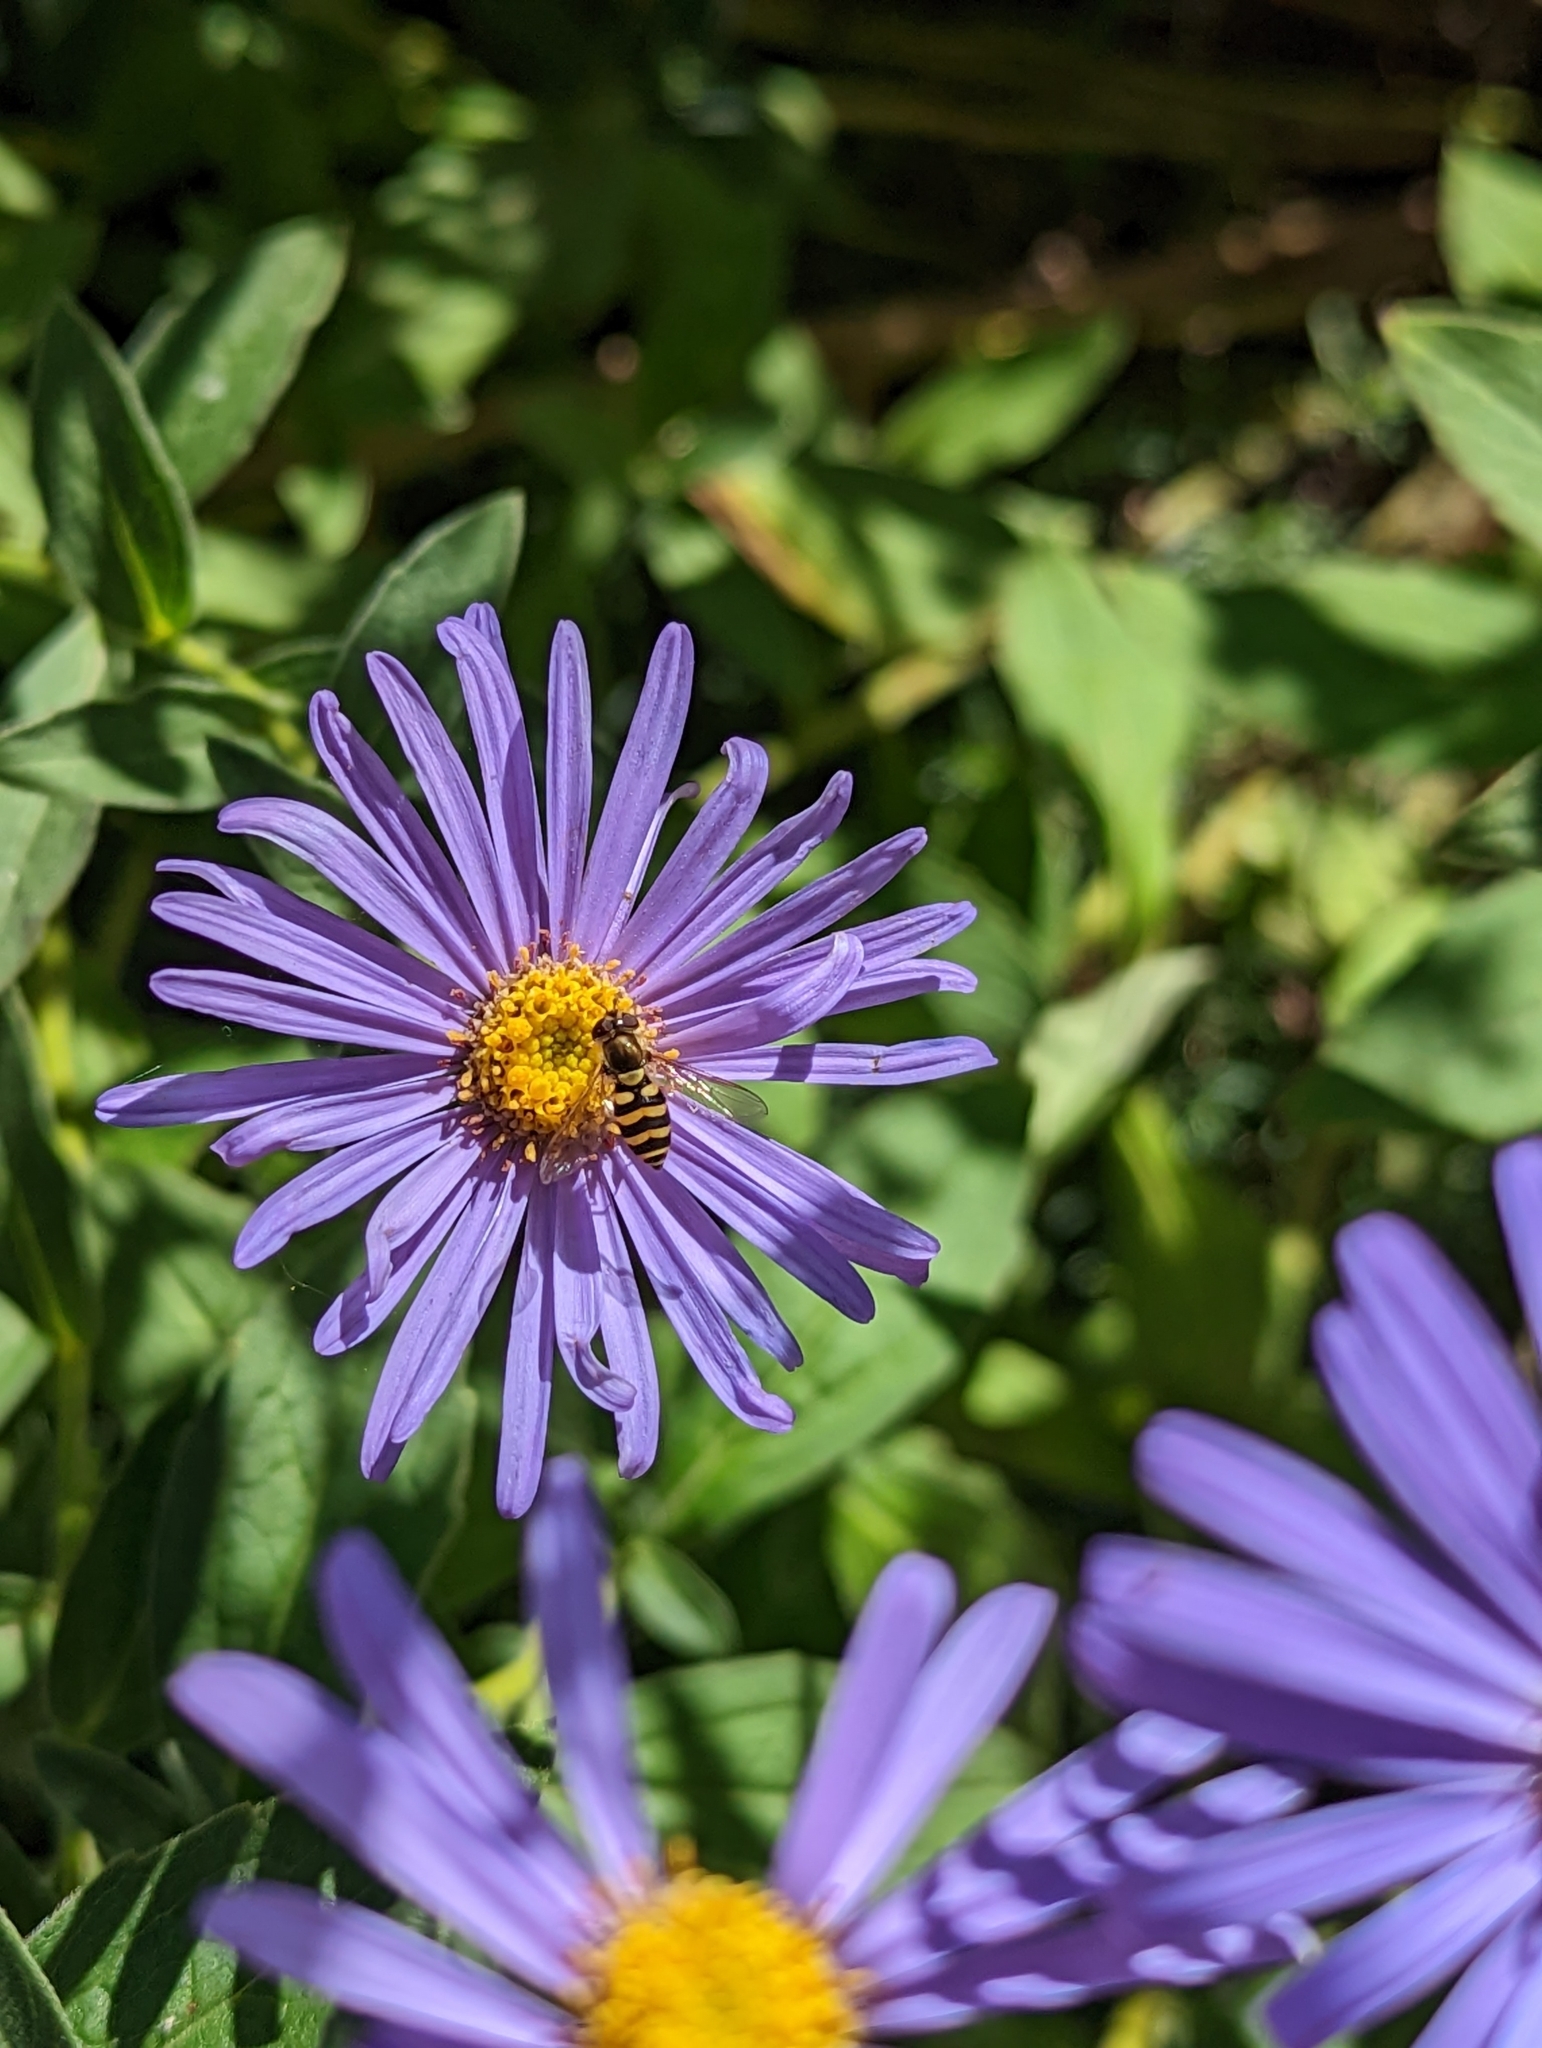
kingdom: Animalia
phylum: Arthropoda
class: Insecta
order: Diptera
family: Syrphidae
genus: Syrphus
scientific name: Syrphus
